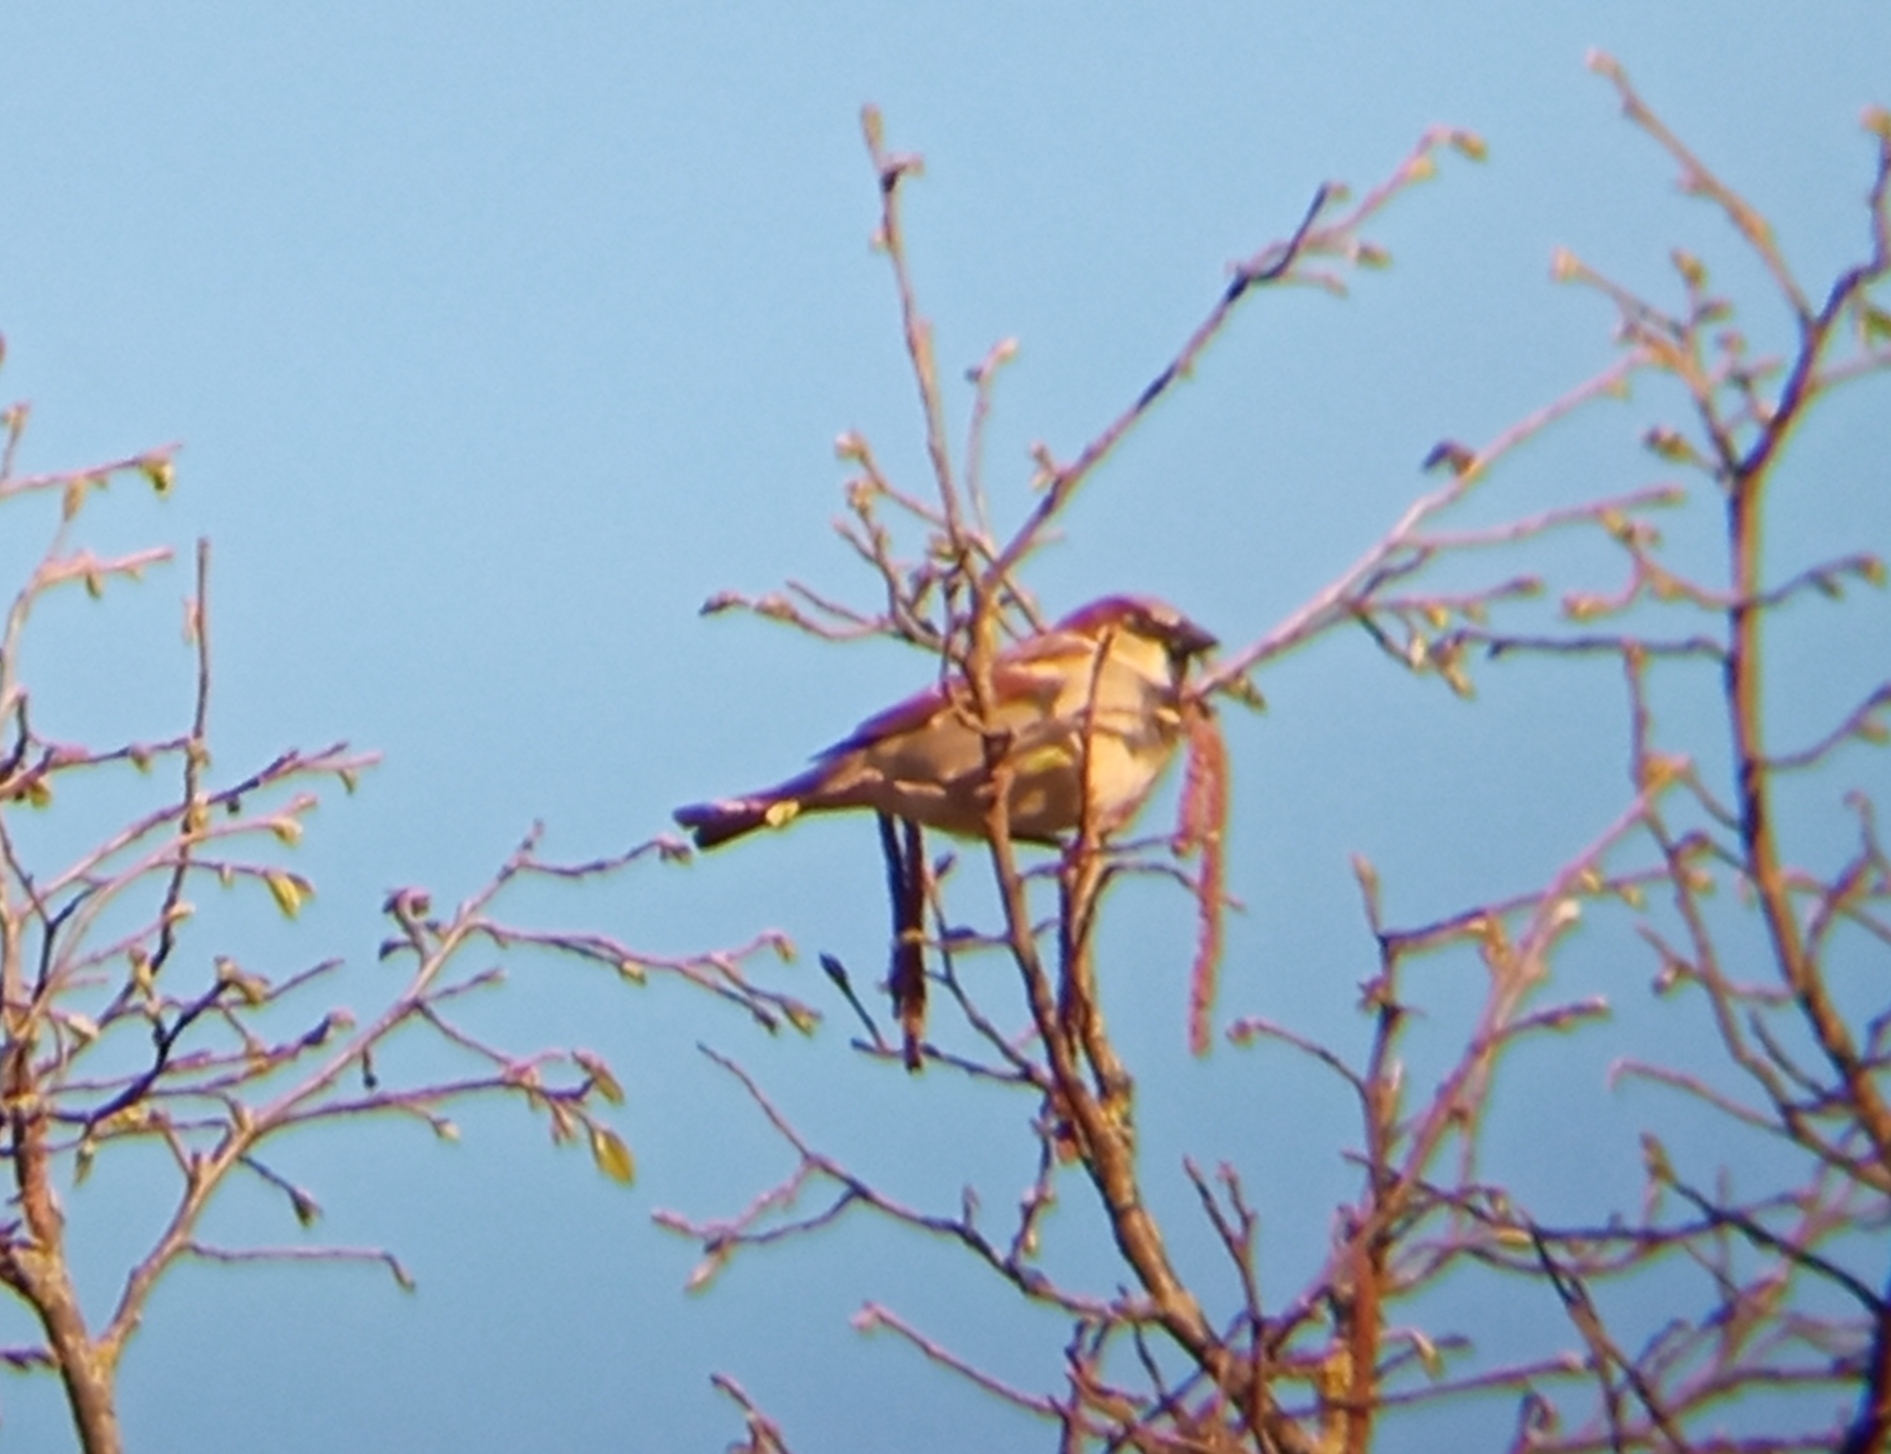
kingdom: Animalia
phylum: Chordata
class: Aves
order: Passeriformes
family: Passeridae
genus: Passer
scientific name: Passer domesticus
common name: House sparrow
